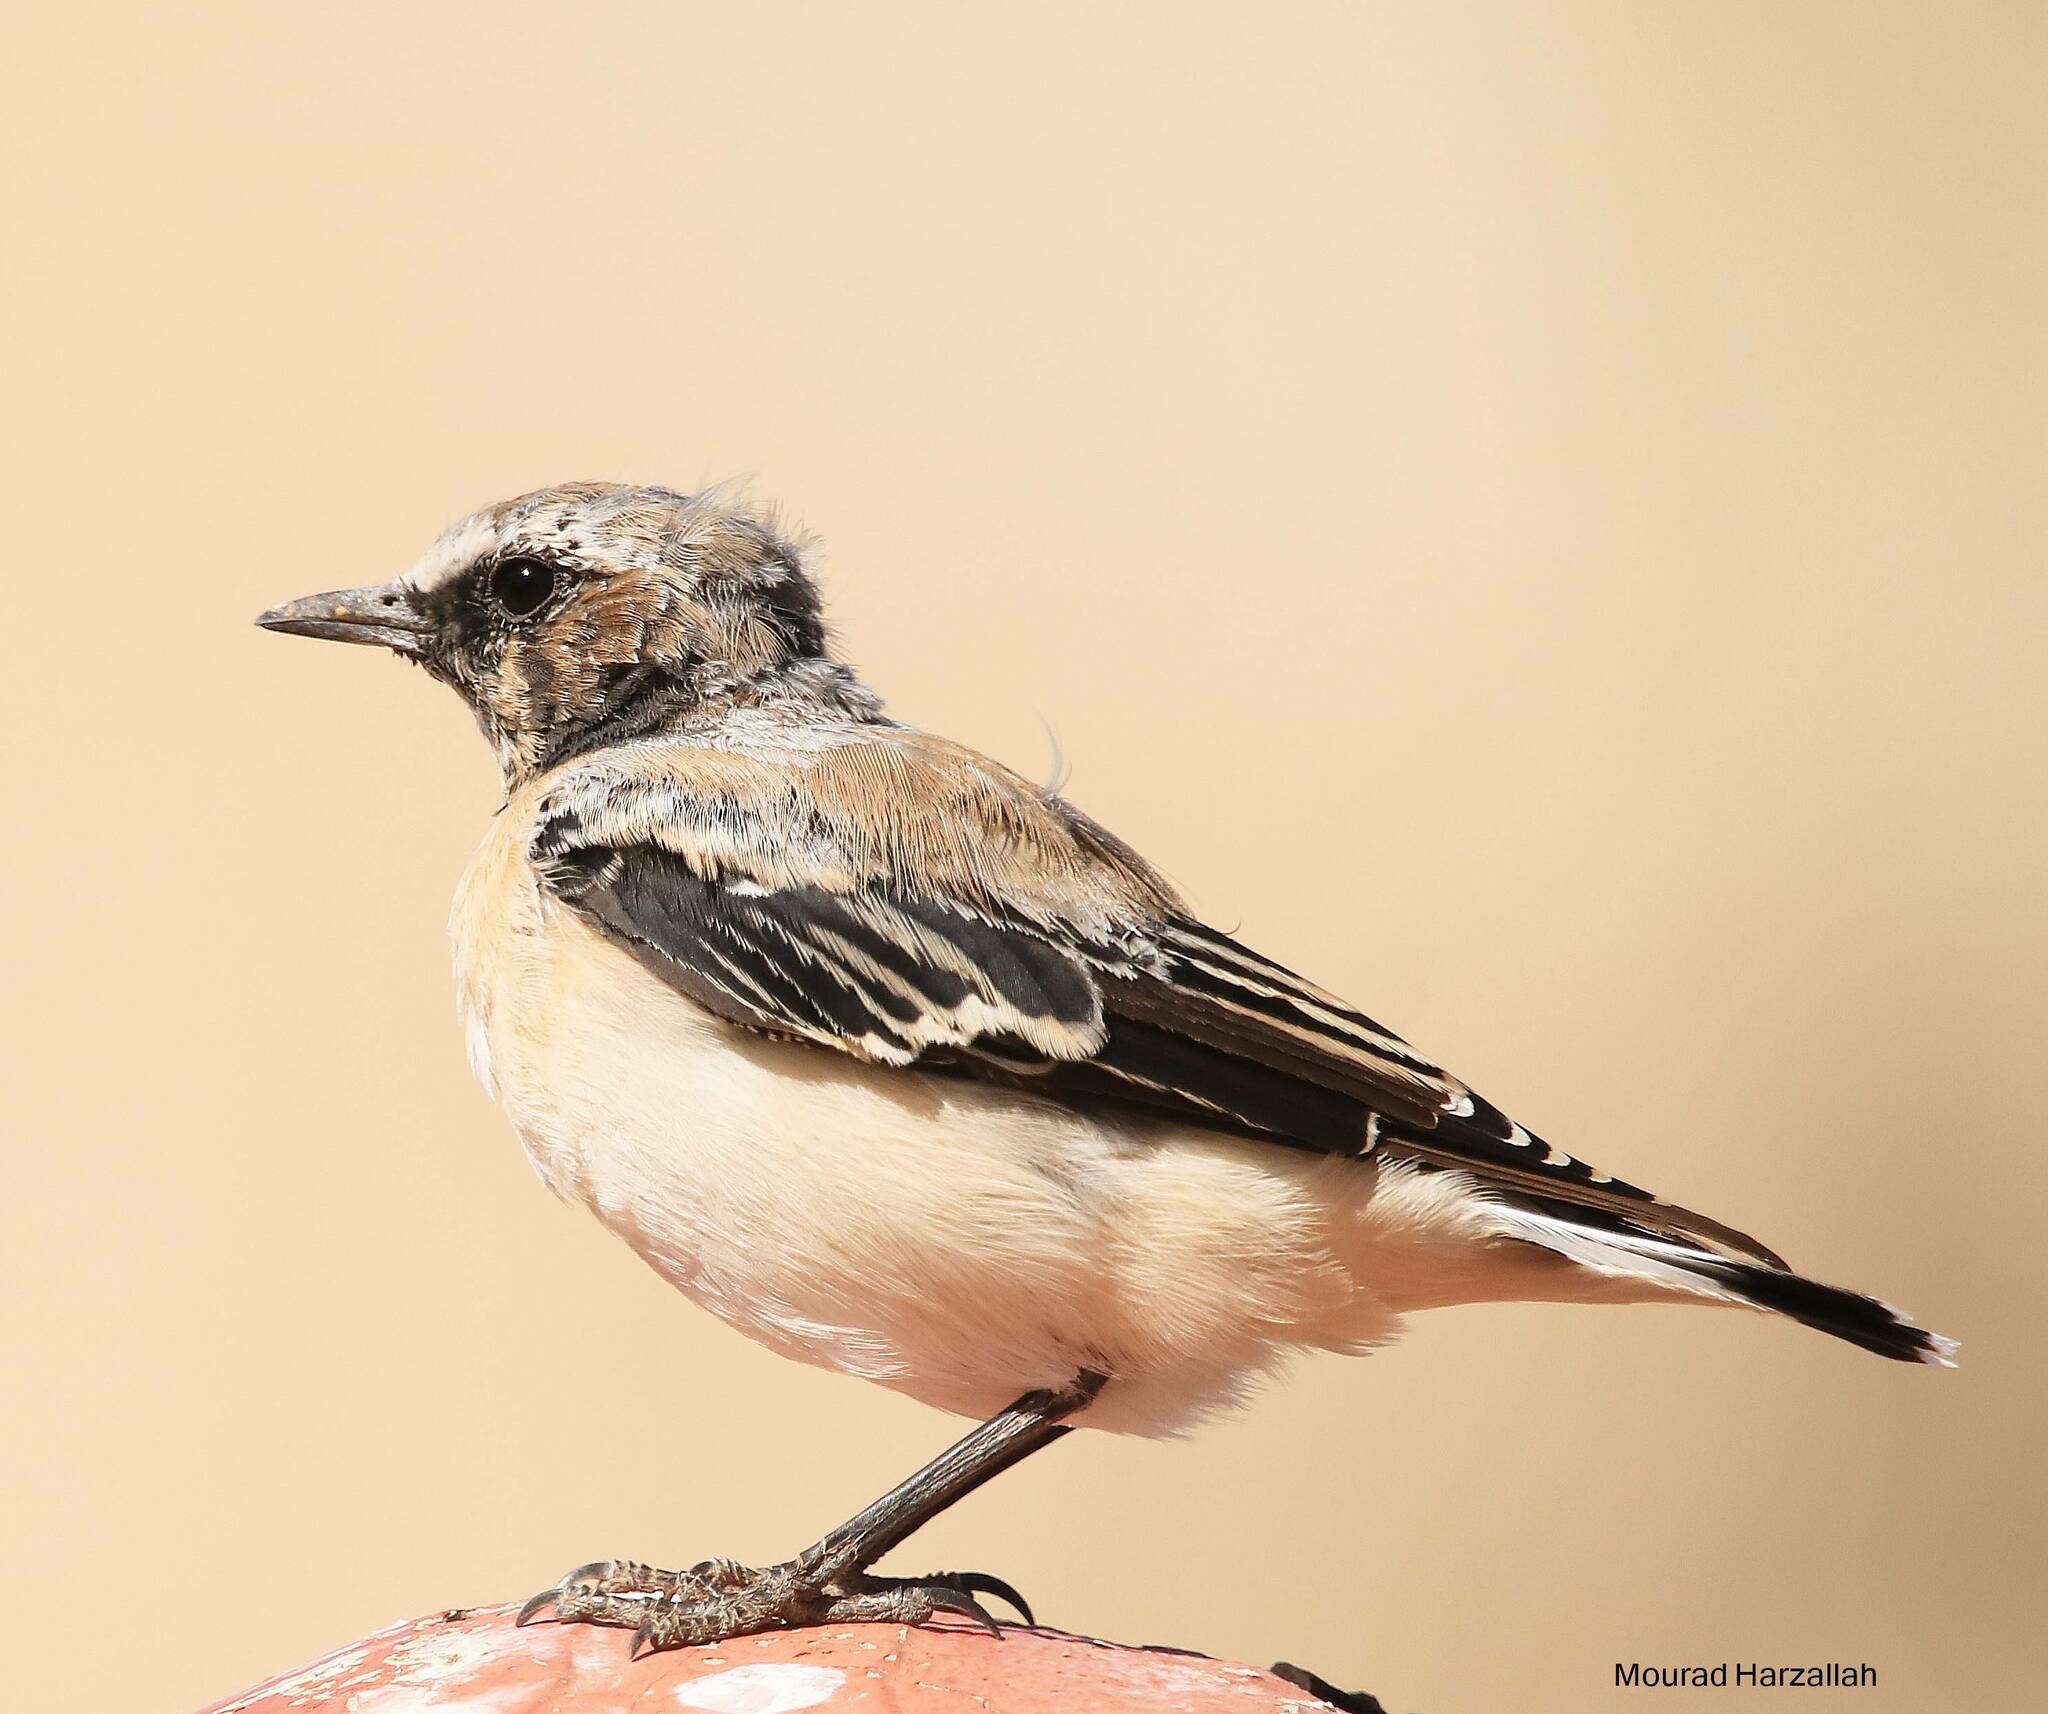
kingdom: Animalia
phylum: Chordata
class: Aves
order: Passeriformes
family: Muscicapidae
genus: Oenanthe
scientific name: Oenanthe oenanthe
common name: Northern wheatear
